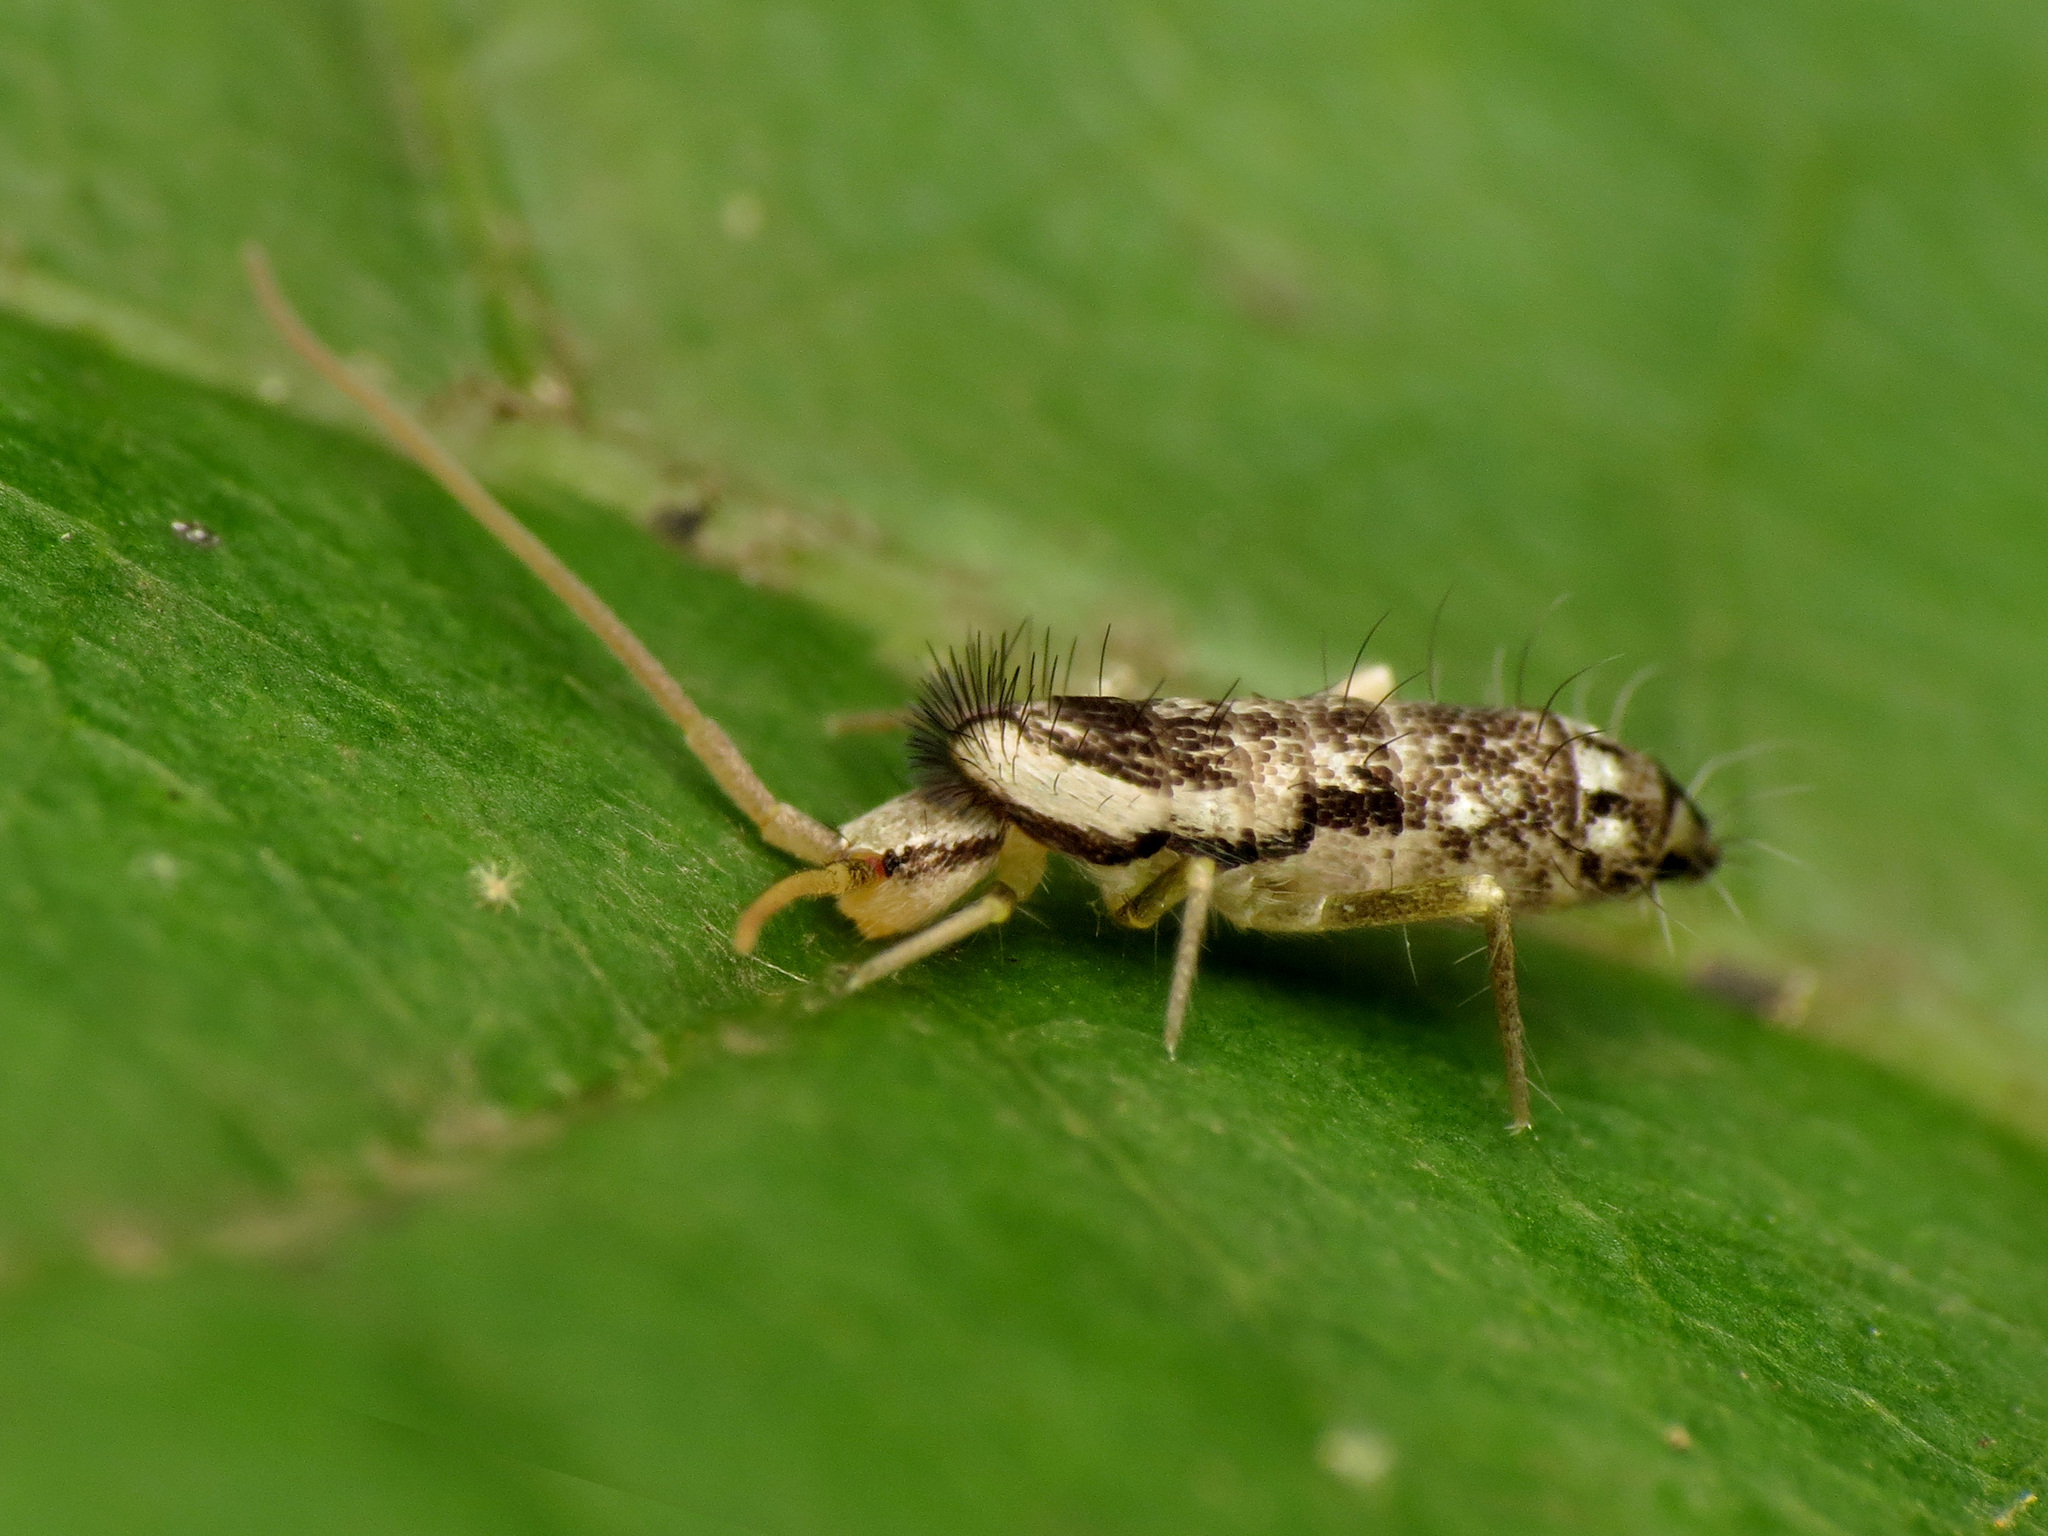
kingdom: Animalia
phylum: Arthropoda
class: Collembola
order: Entomobryomorpha
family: Tomoceridae
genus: Pogonognathellus
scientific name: Pogonognathellus elongatus
